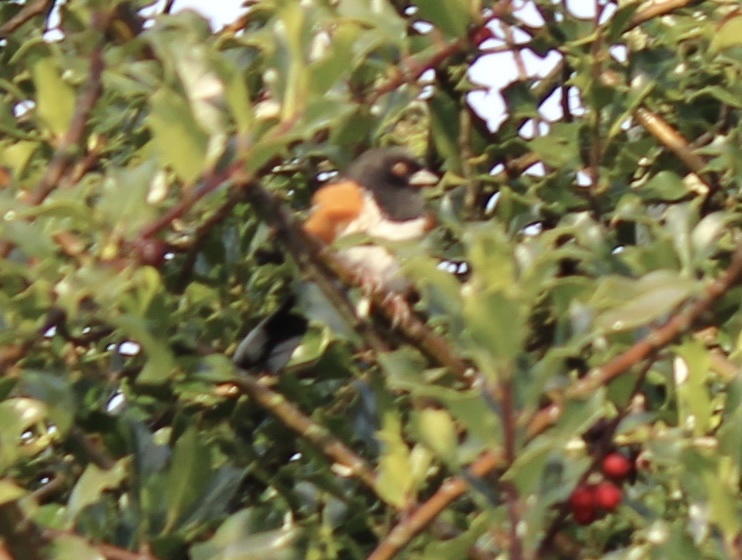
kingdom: Animalia
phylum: Chordata
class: Aves
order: Passeriformes
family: Passerellidae
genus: Pipilo
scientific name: Pipilo maculatus
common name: Spotted towhee
